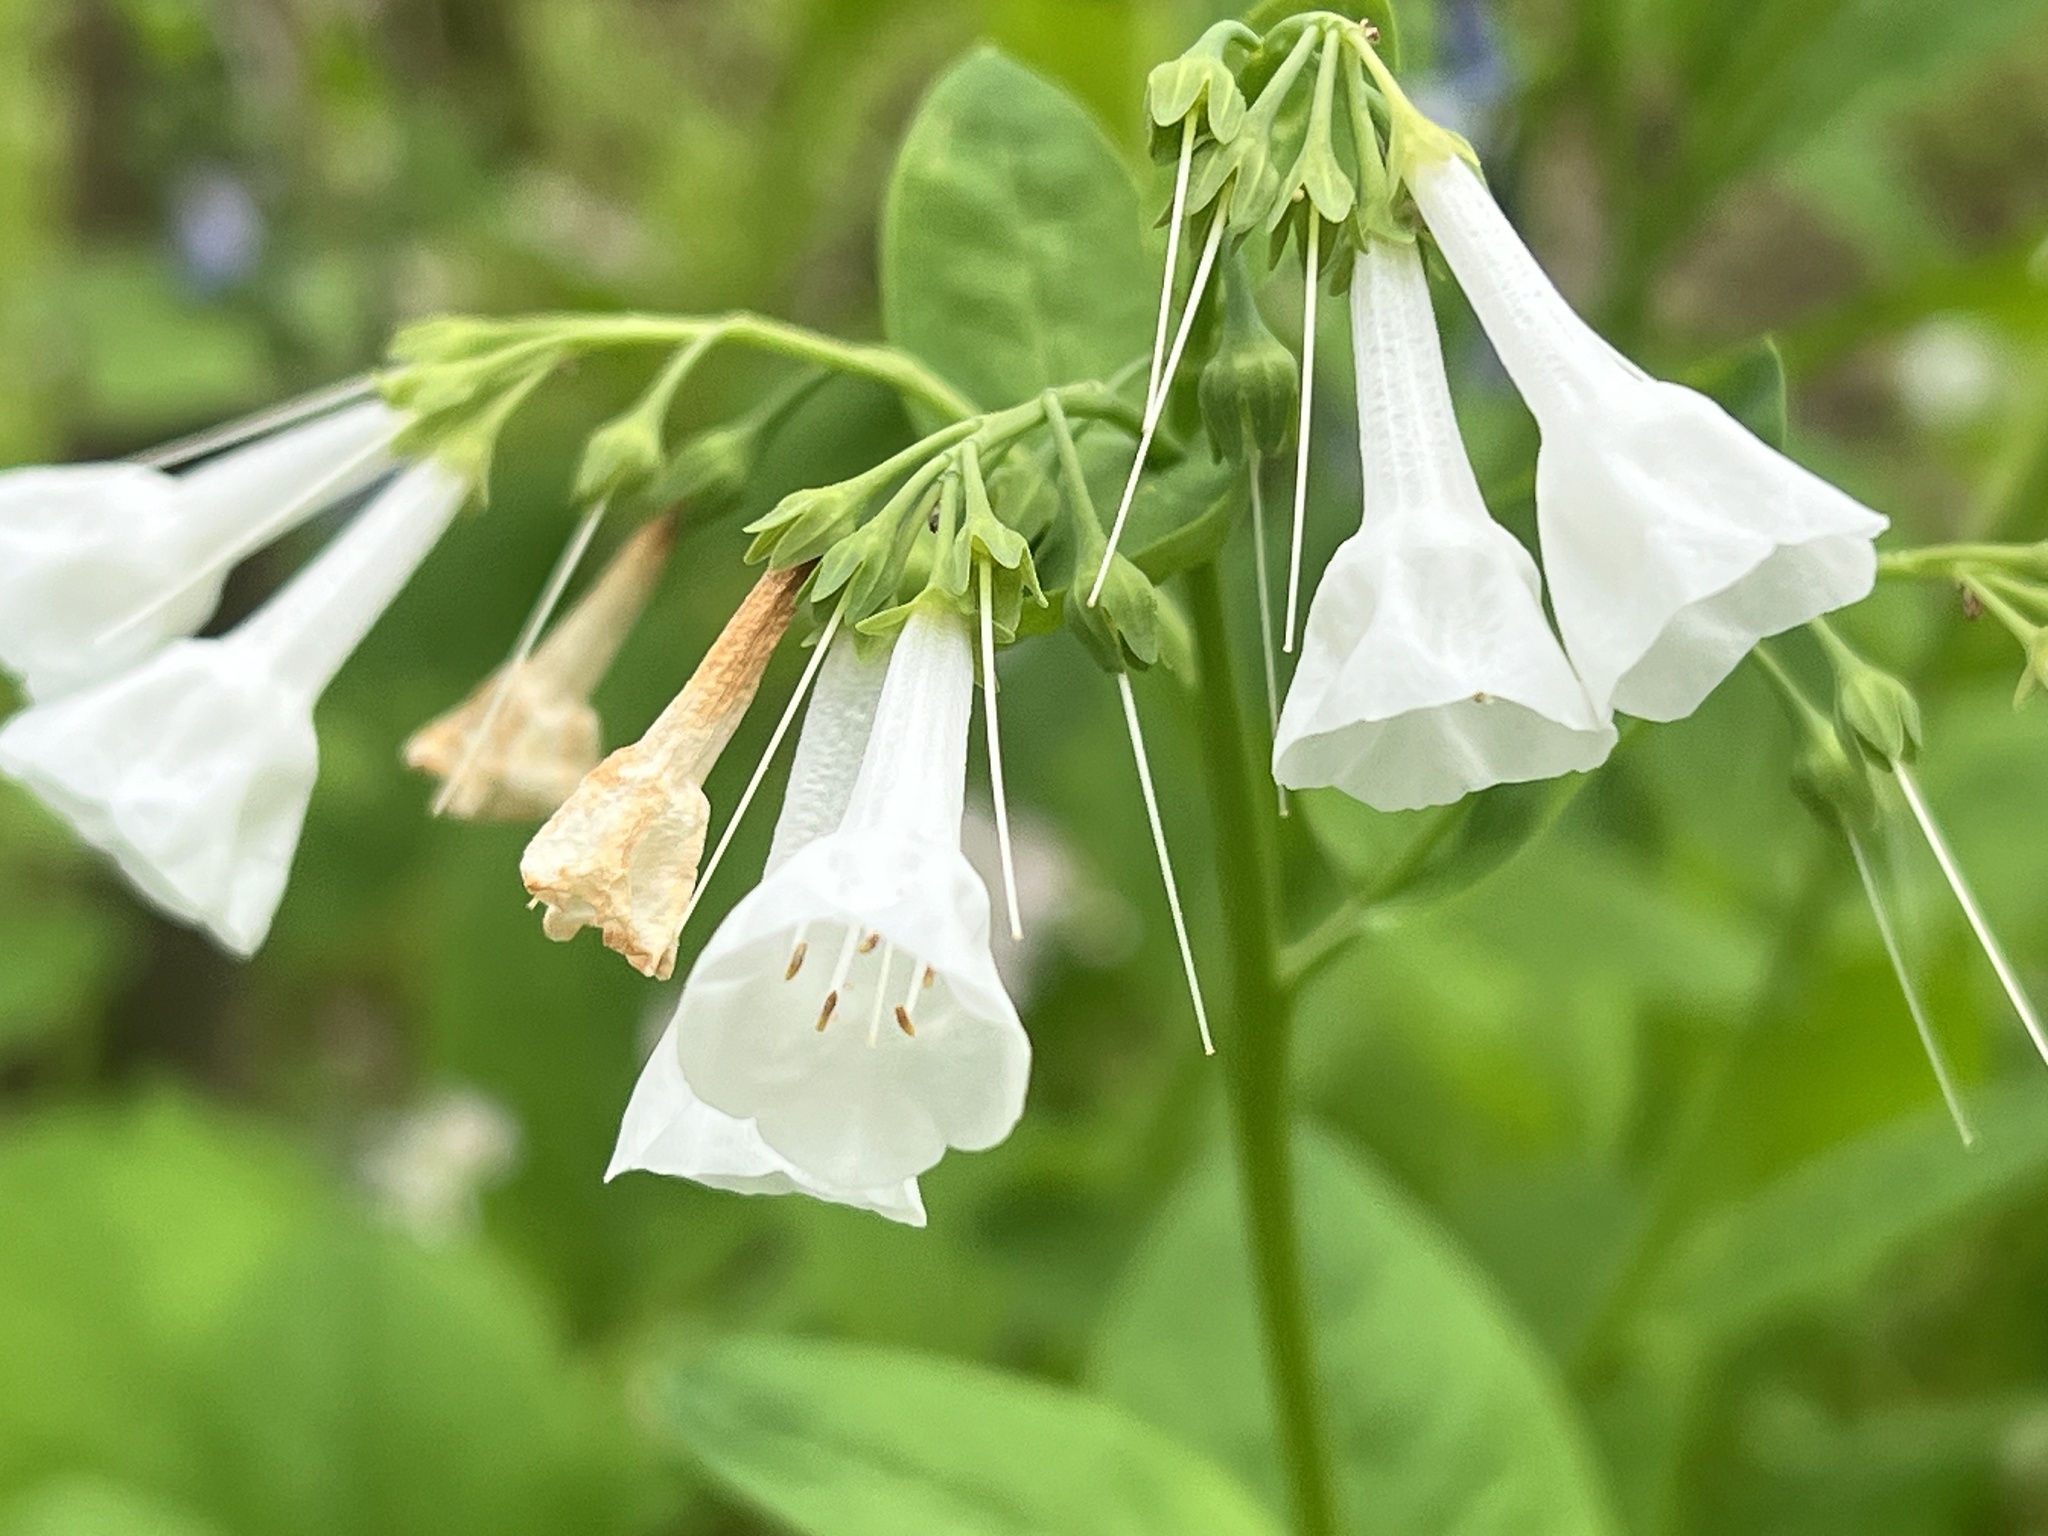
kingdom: Plantae
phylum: Tracheophyta
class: Magnoliopsida
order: Boraginales
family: Boraginaceae
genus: Mertensia
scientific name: Mertensia virginica
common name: Virginia bluebells
